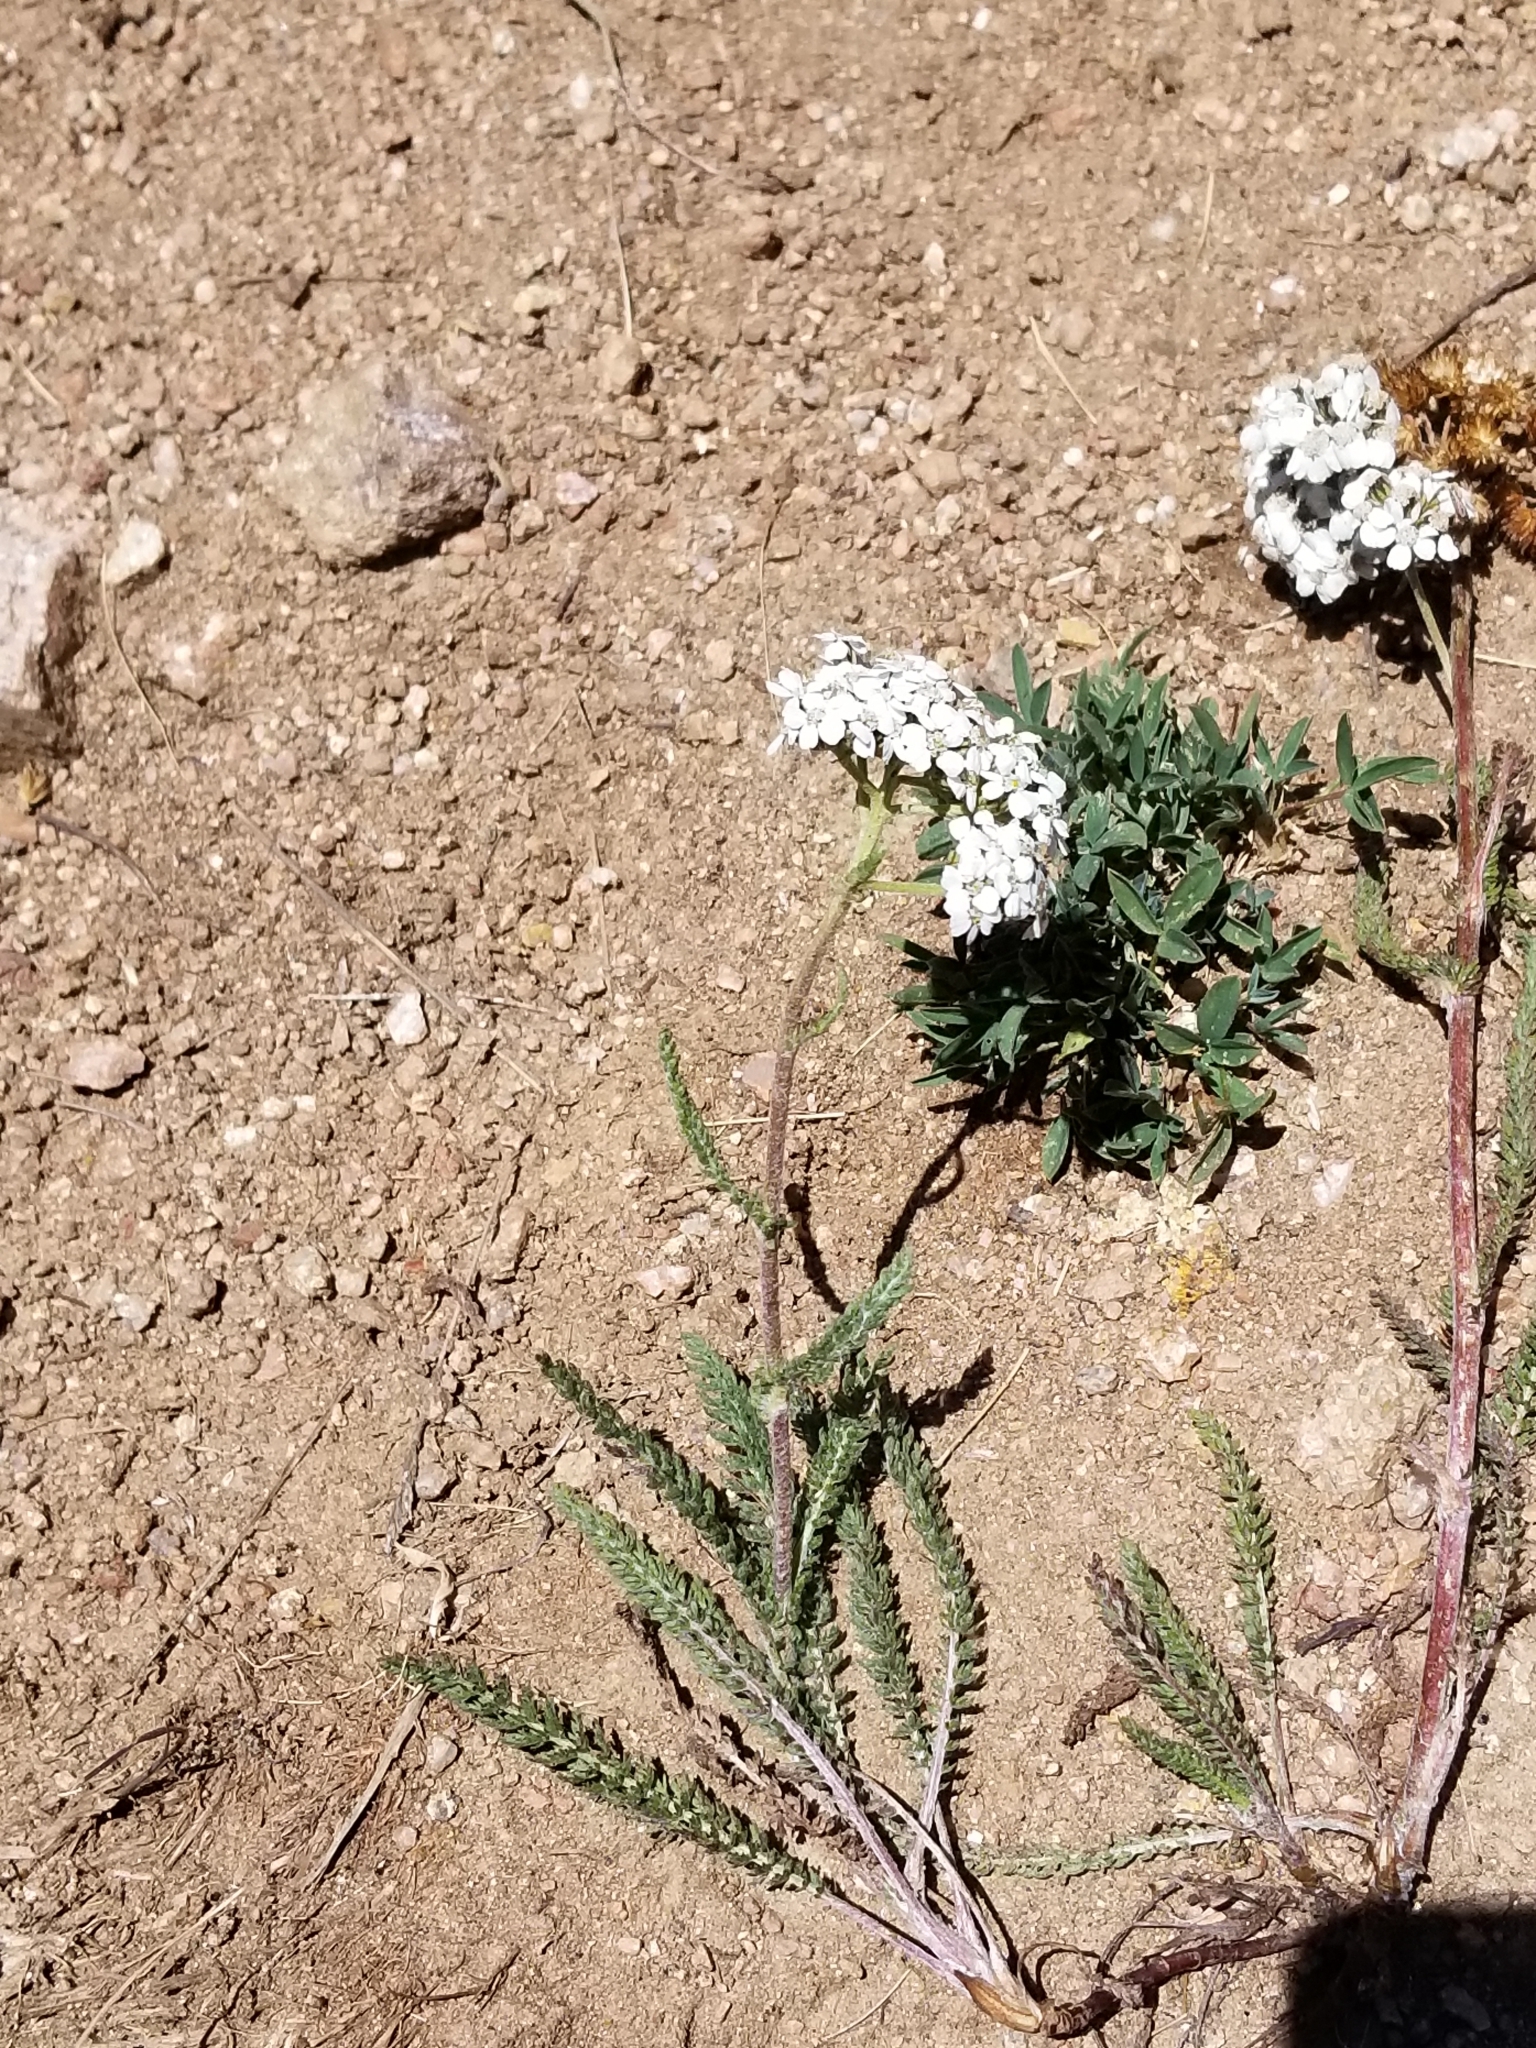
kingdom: Plantae
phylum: Tracheophyta
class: Magnoliopsida
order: Asterales
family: Asteraceae
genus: Achillea
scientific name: Achillea millefolium
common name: Yarrow
